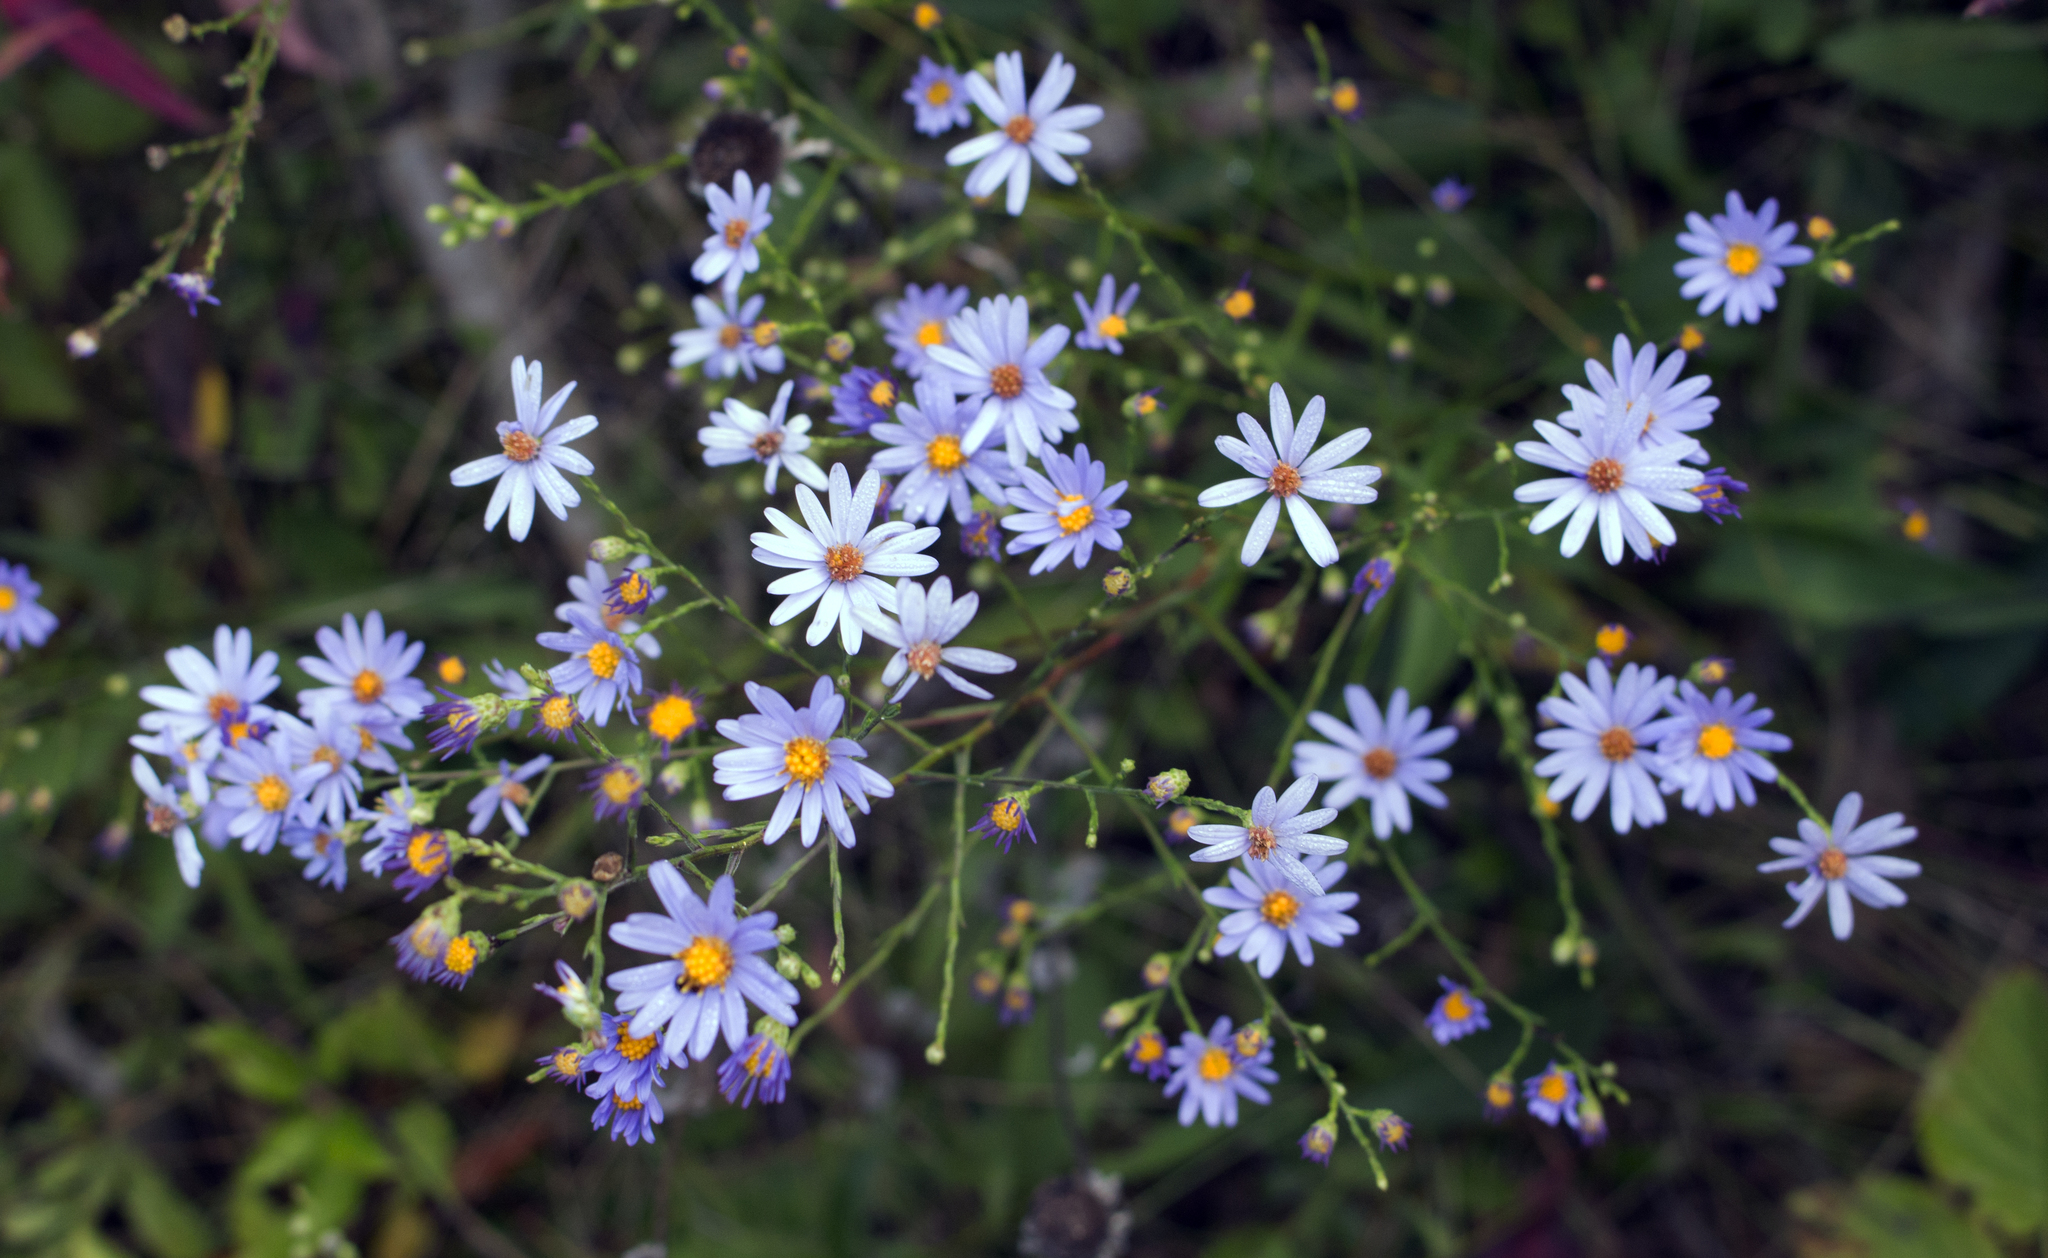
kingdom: Plantae
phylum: Tracheophyta
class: Magnoliopsida
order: Asterales
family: Asteraceae
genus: Symphyotrichum
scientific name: Symphyotrichum oolentangiense
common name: Azure aster
